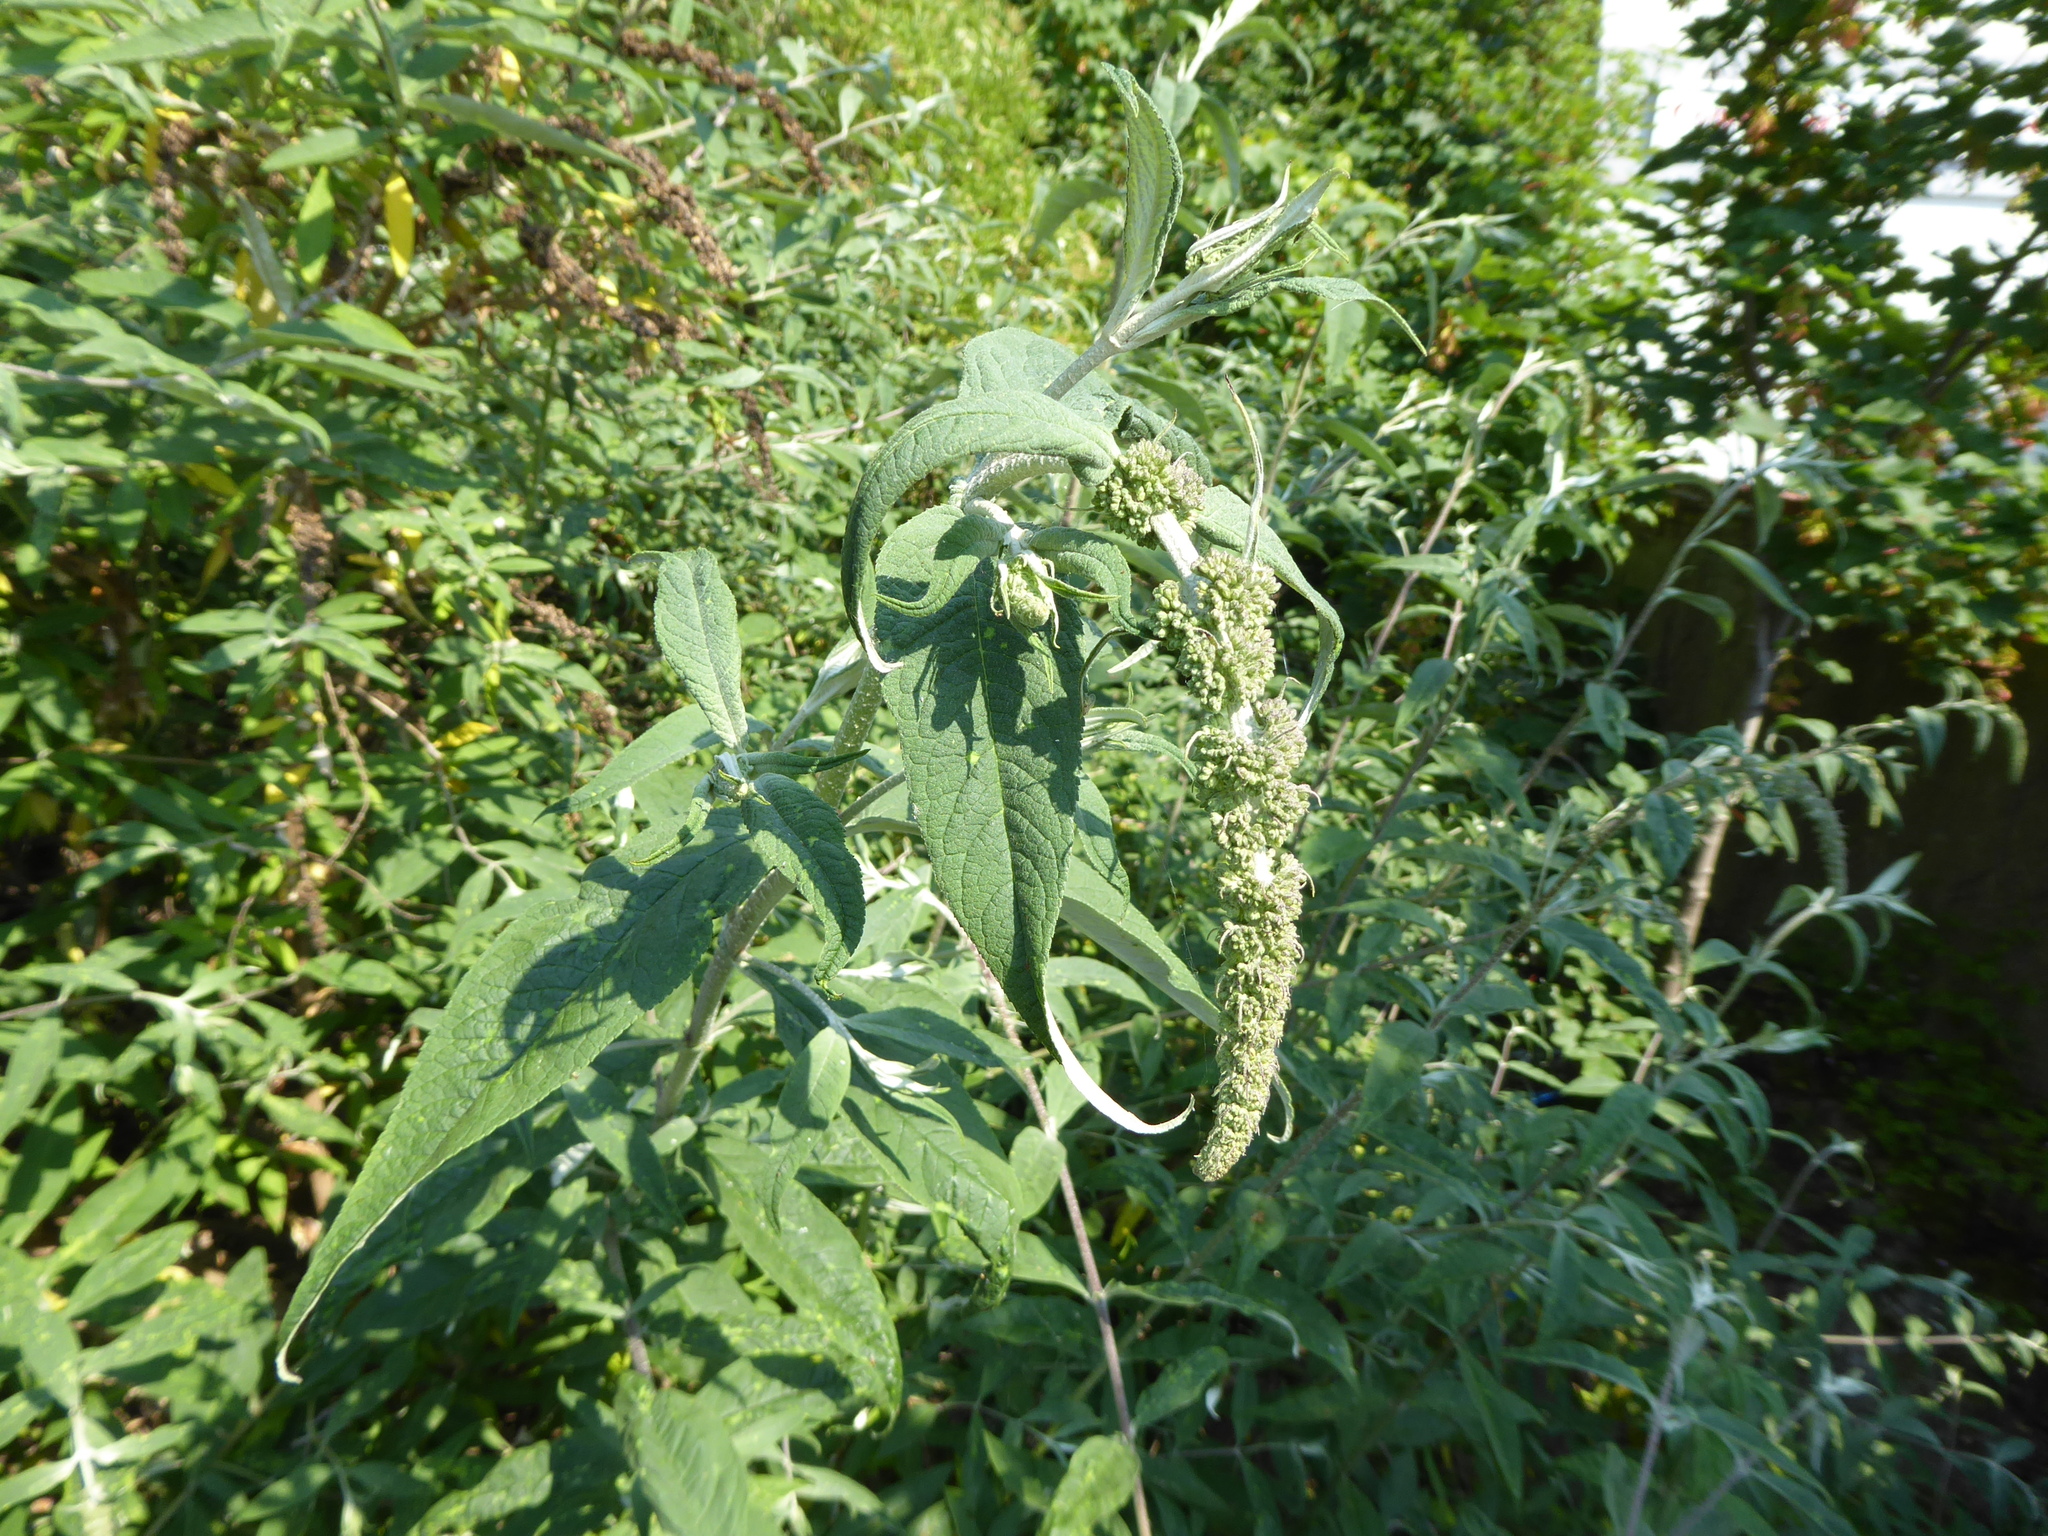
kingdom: Plantae
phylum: Tracheophyta
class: Magnoliopsida
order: Lamiales
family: Scrophulariaceae
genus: Buddleja
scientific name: Buddleja davidii
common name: Butterfly-bush
